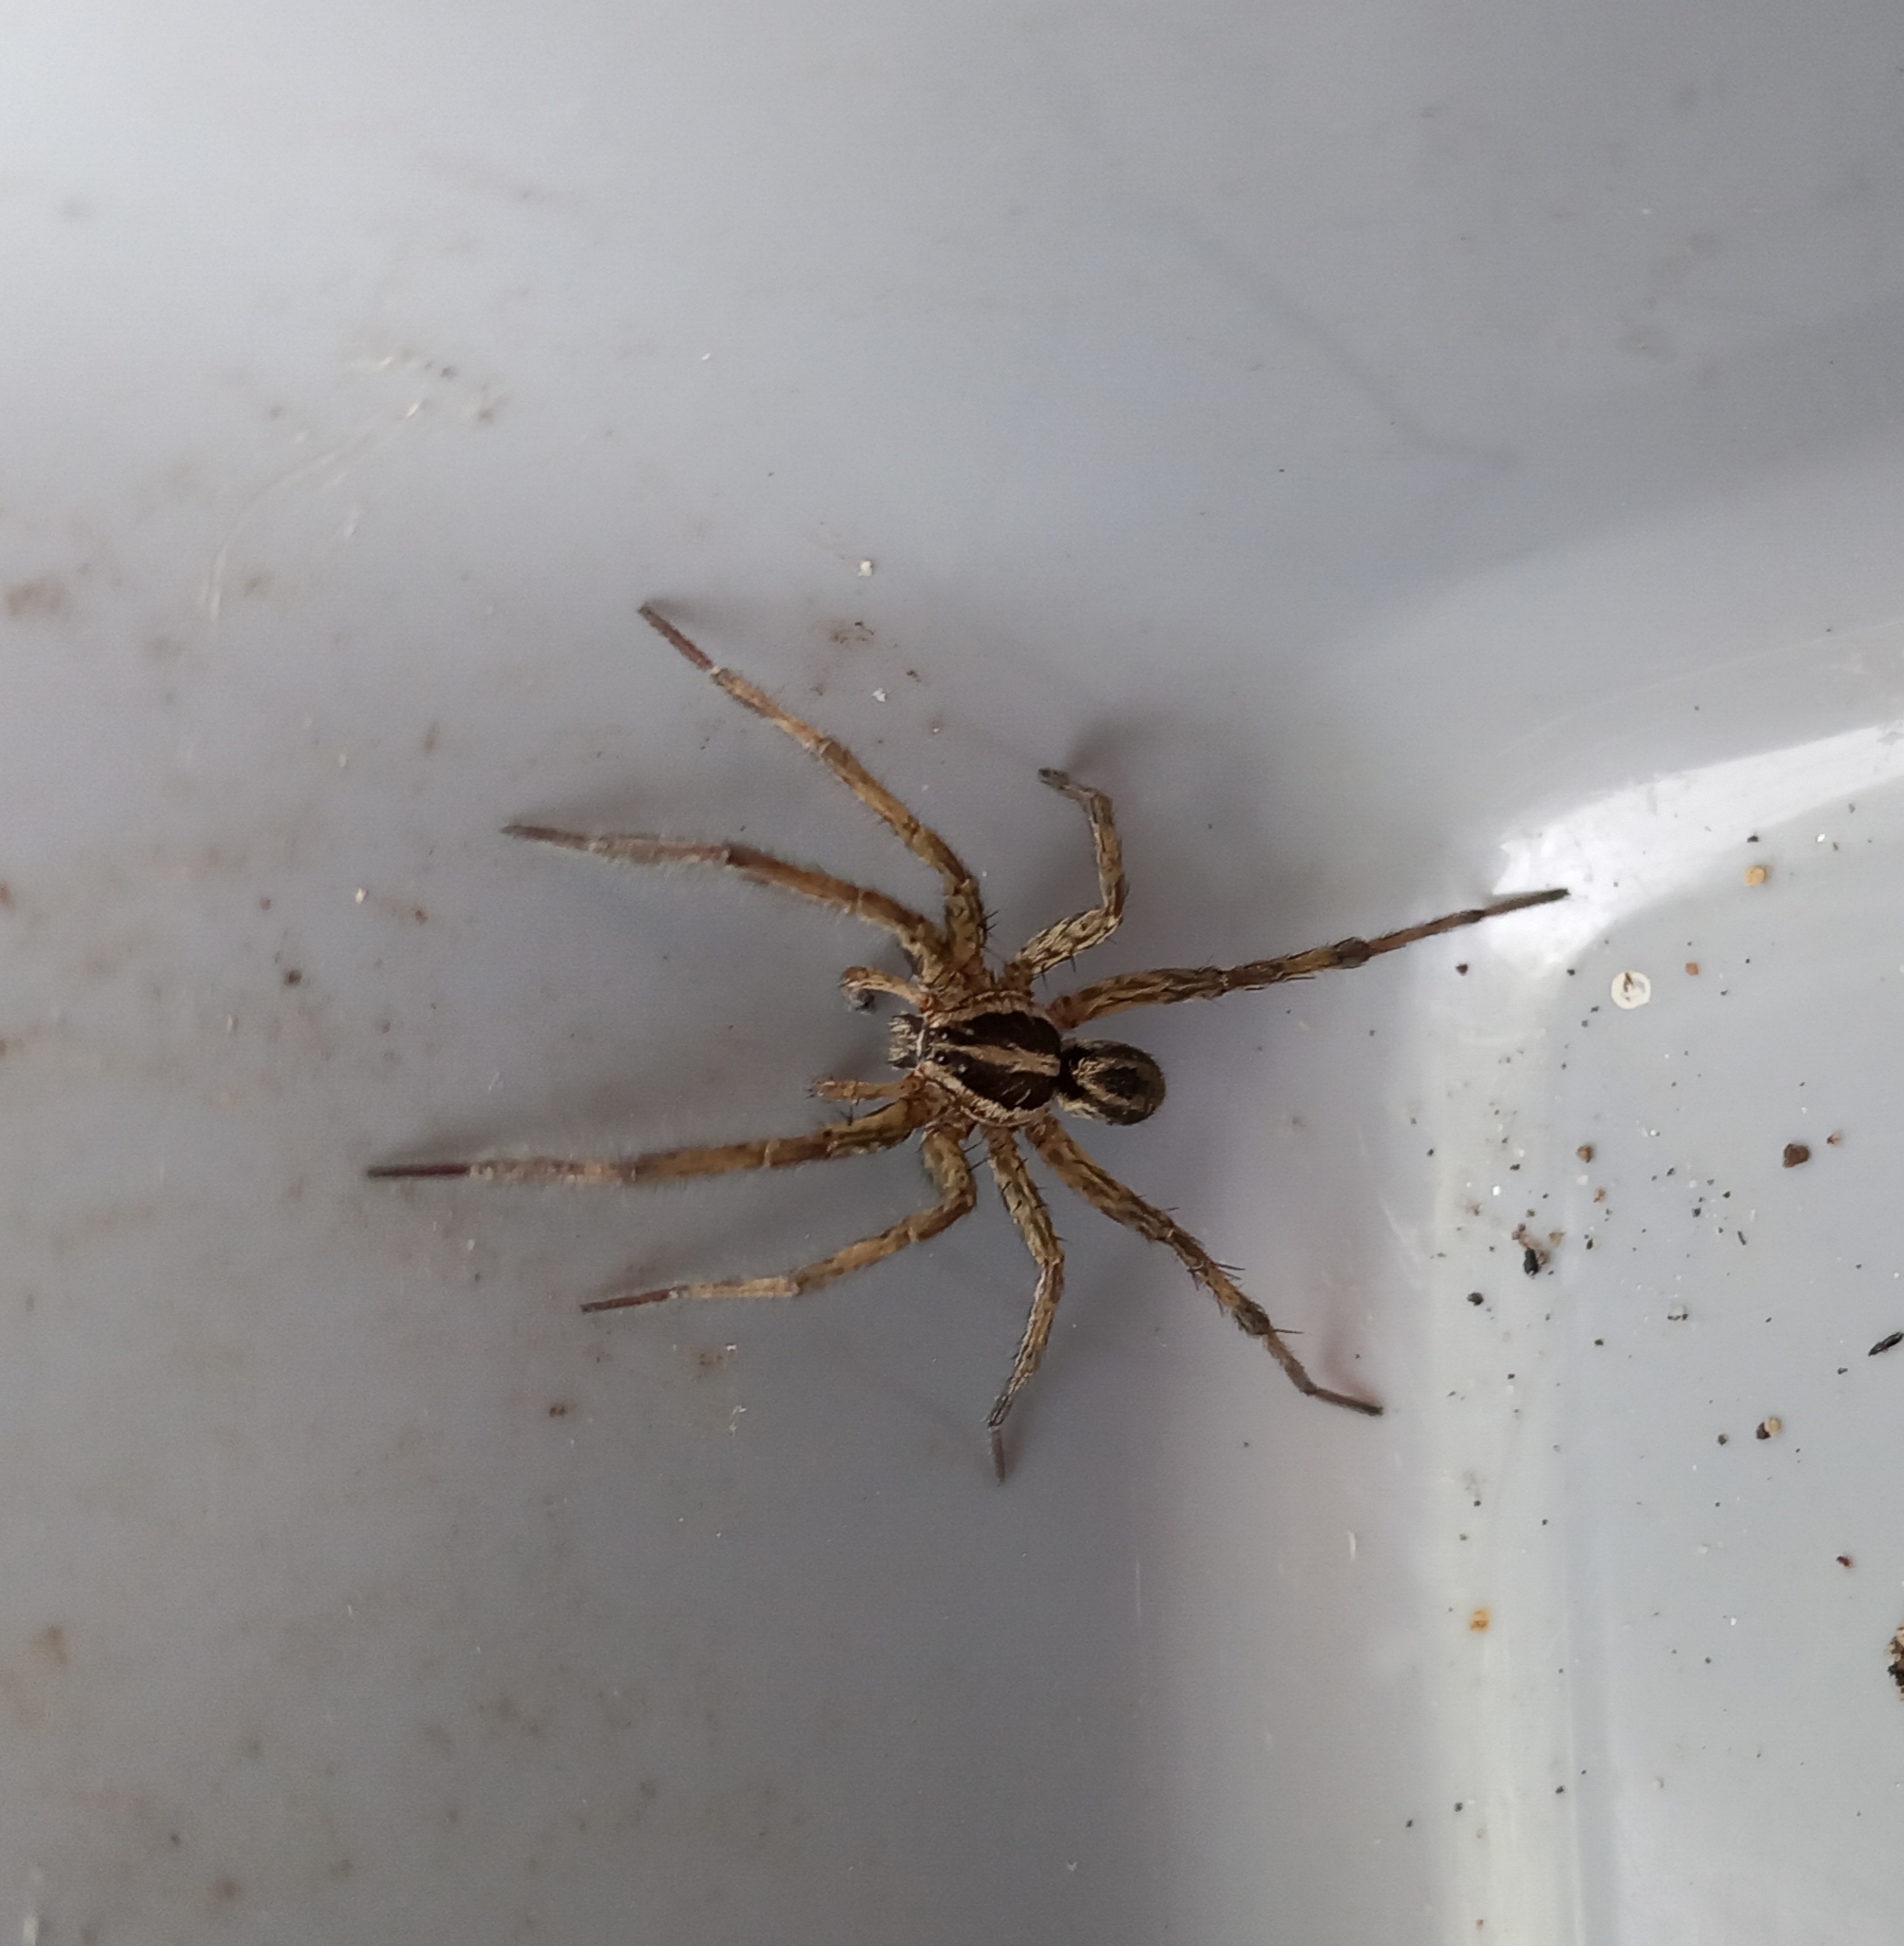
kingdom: Animalia
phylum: Arthropoda
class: Arachnida
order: Araneae
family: Lycosidae
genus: Hogna
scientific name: Hogna radiata
